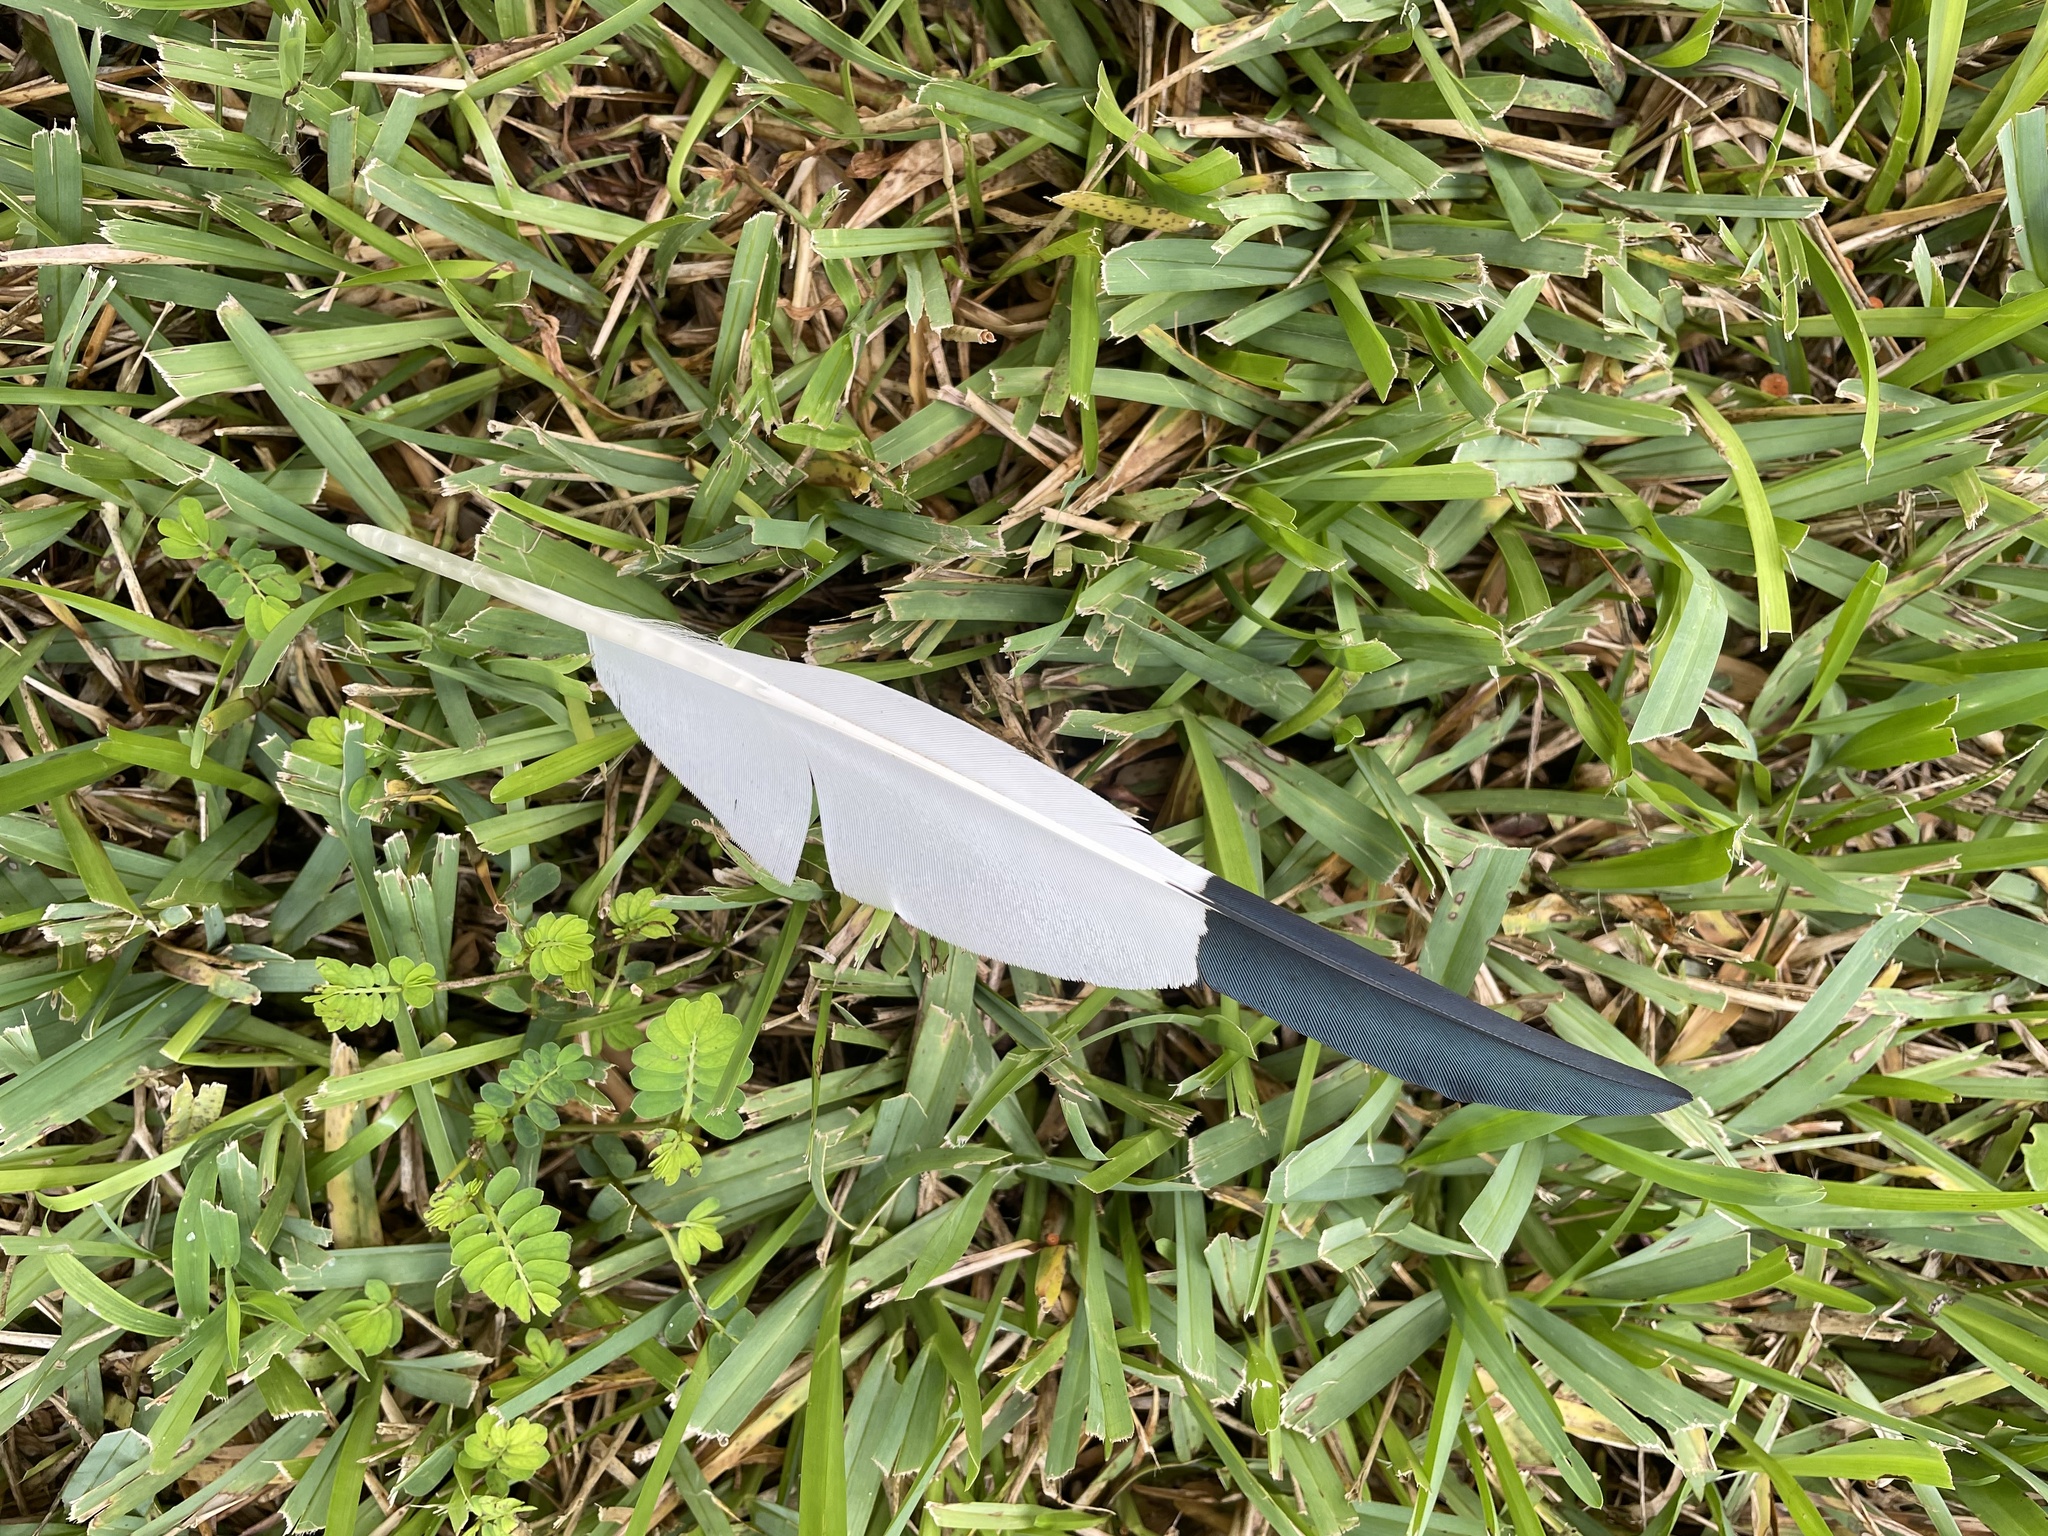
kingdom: Animalia
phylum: Chordata
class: Aves
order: Pelecaniformes
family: Threskiornithidae
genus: Eudocimus
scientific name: Eudocimus albus
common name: White ibis
